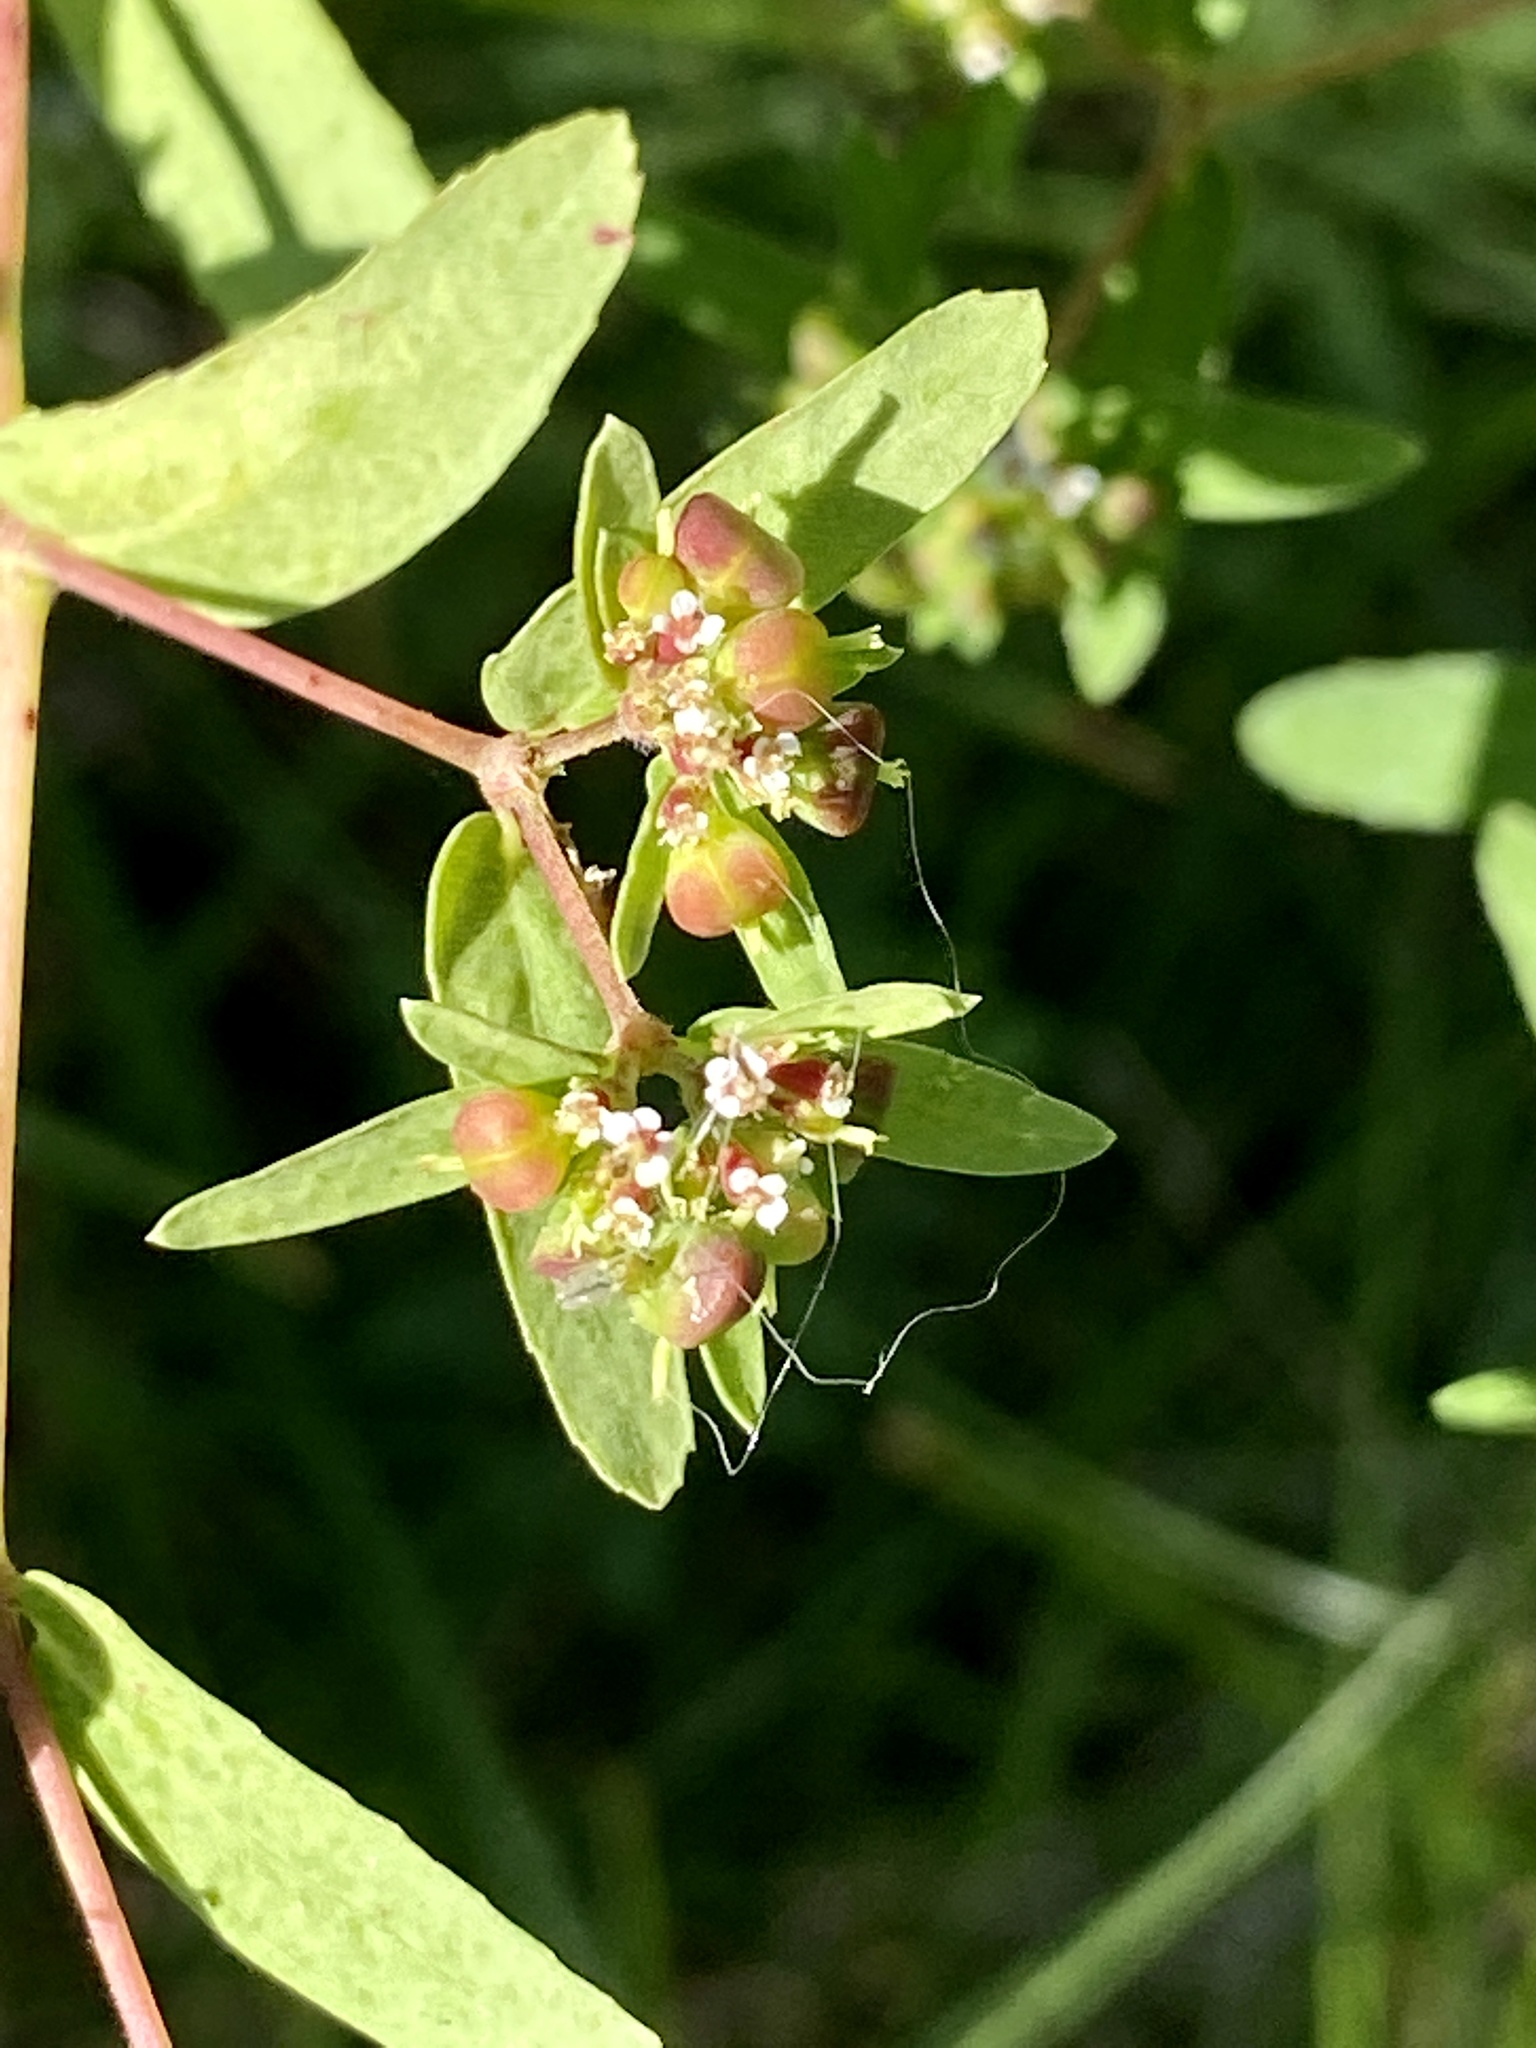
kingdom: Plantae
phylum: Tracheophyta
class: Magnoliopsida
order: Malpighiales
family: Euphorbiaceae
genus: Euphorbia
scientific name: Euphorbia nutans
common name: Eyebane
